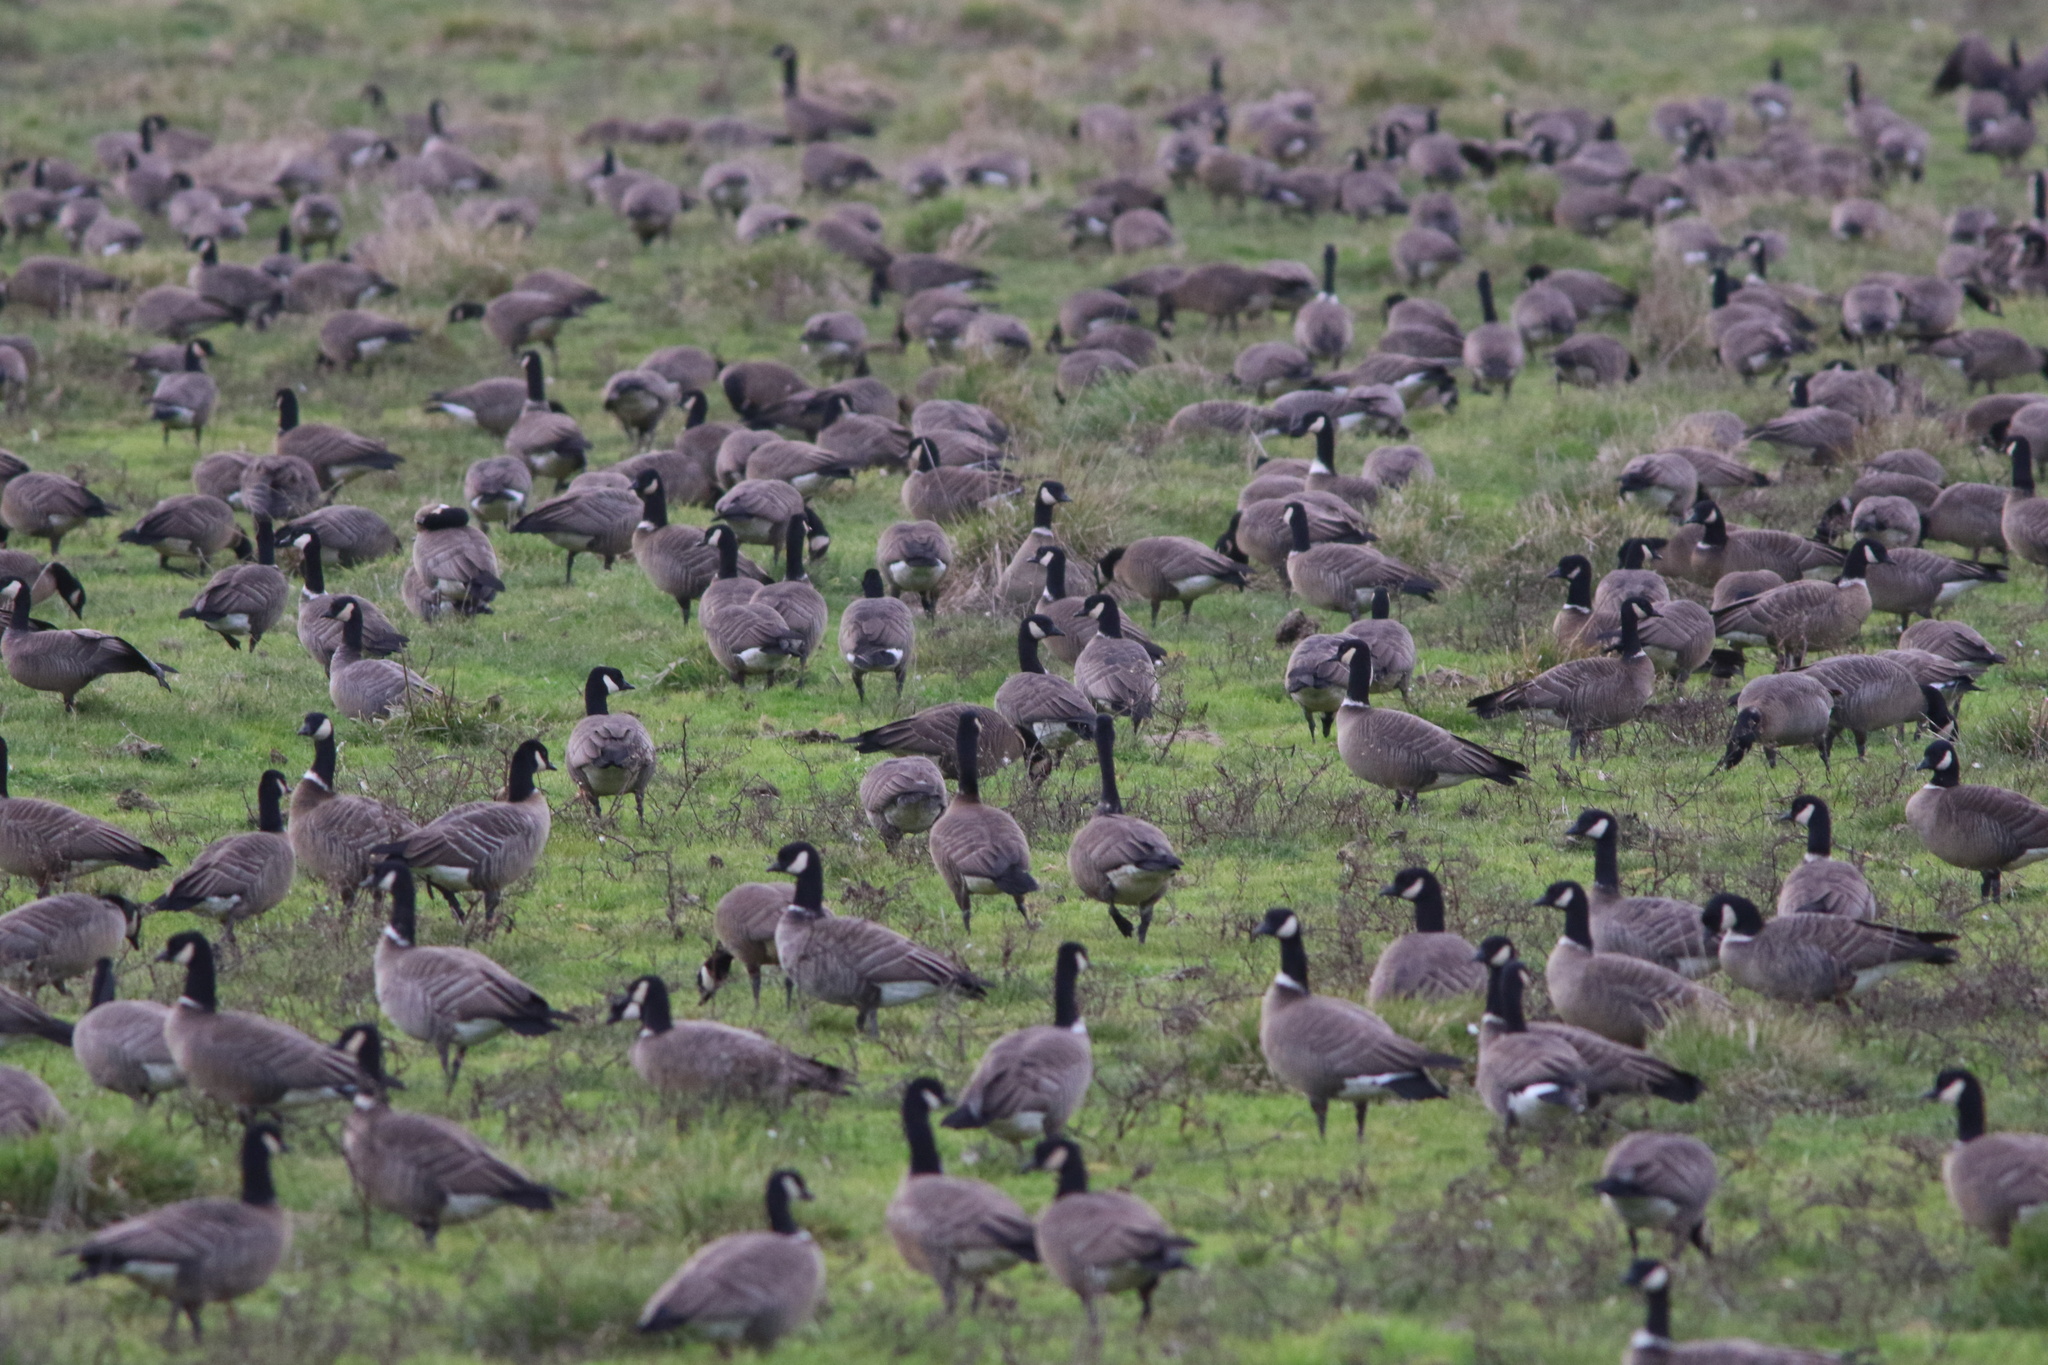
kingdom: Animalia
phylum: Chordata
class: Aves
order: Anseriformes
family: Anatidae
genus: Branta
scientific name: Branta hutchinsii
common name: Cackling goose
